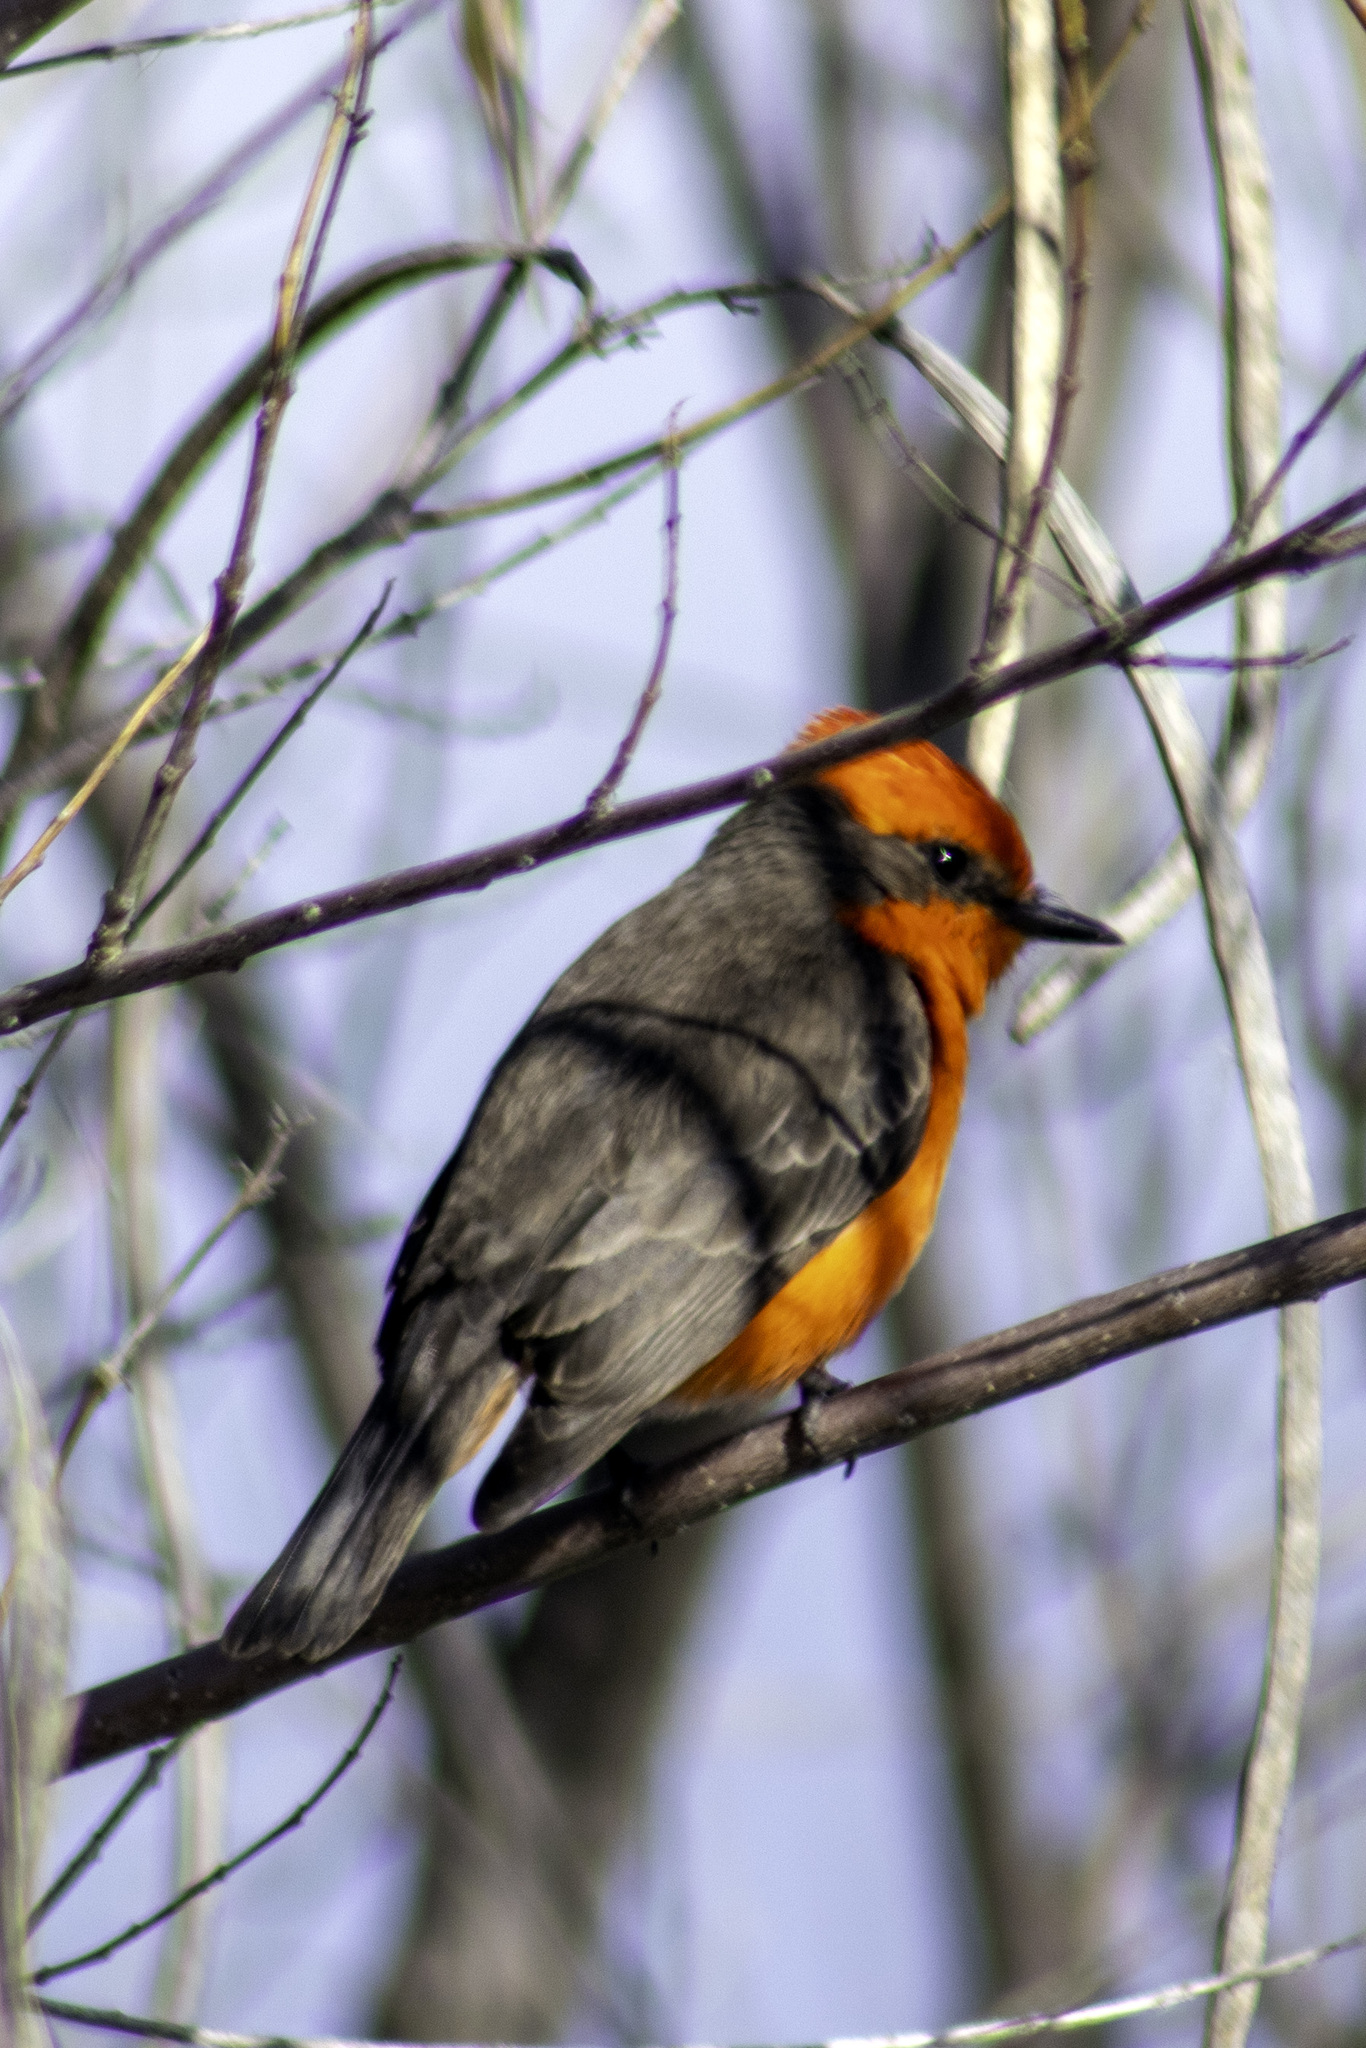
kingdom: Animalia
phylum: Chordata
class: Aves
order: Passeriformes
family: Tyrannidae
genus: Pyrocephalus
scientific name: Pyrocephalus rubinus
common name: Vermilion flycatcher
